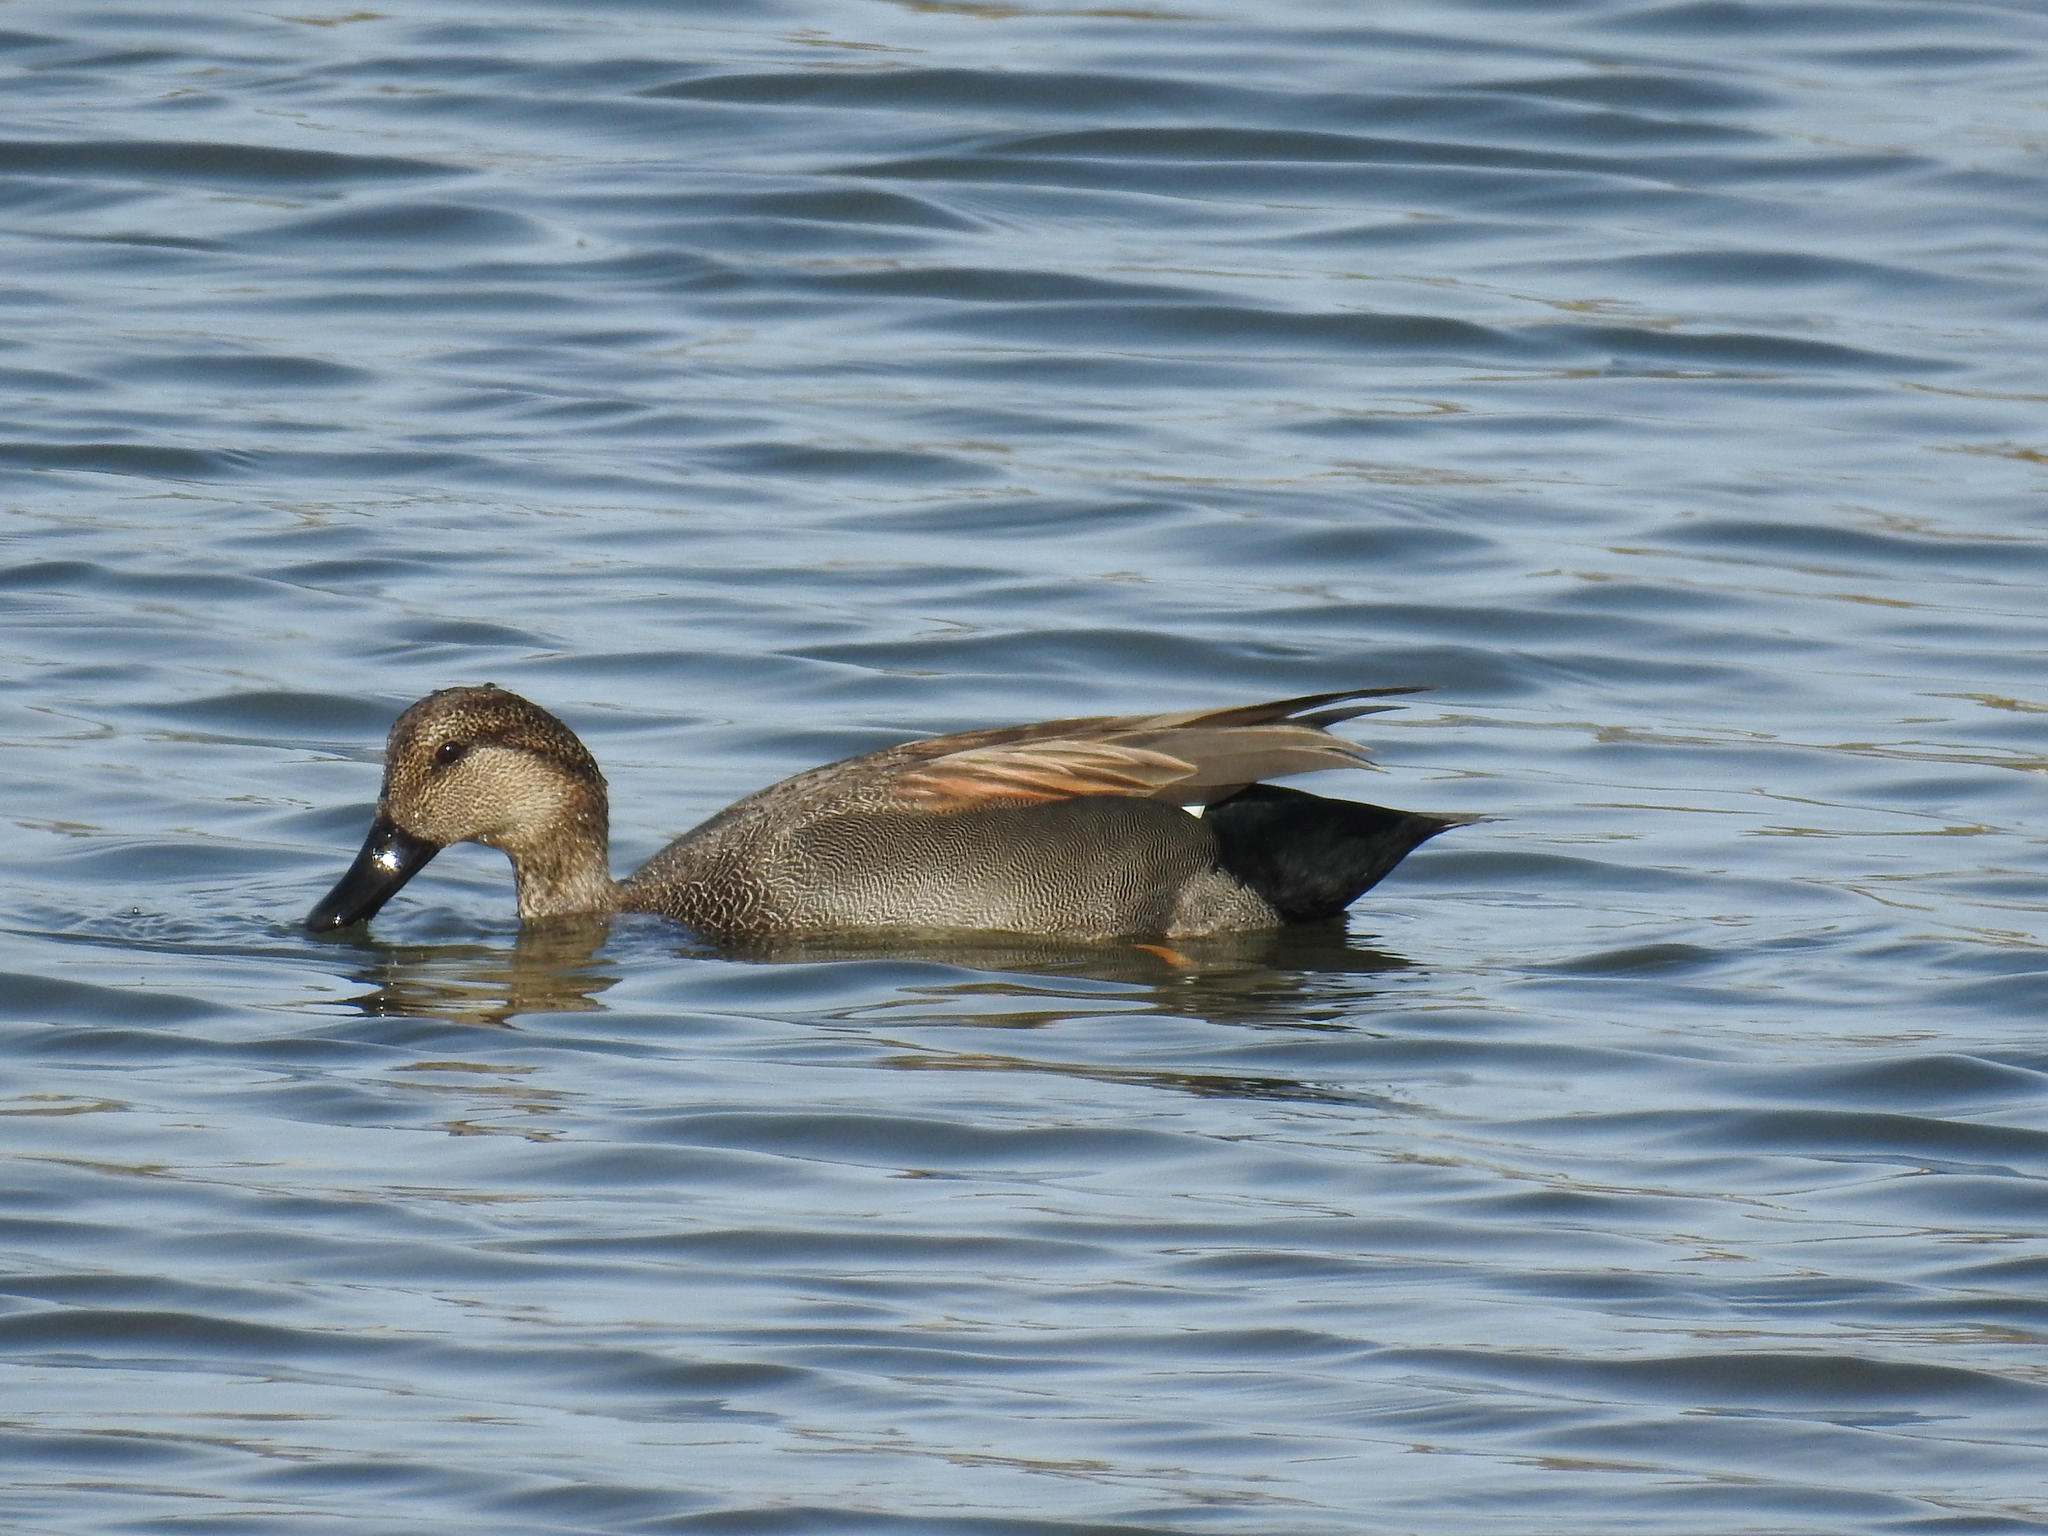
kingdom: Animalia
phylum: Chordata
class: Aves
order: Anseriformes
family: Anatidae
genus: Mareca
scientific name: Mareca strepera
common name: Gadwall
